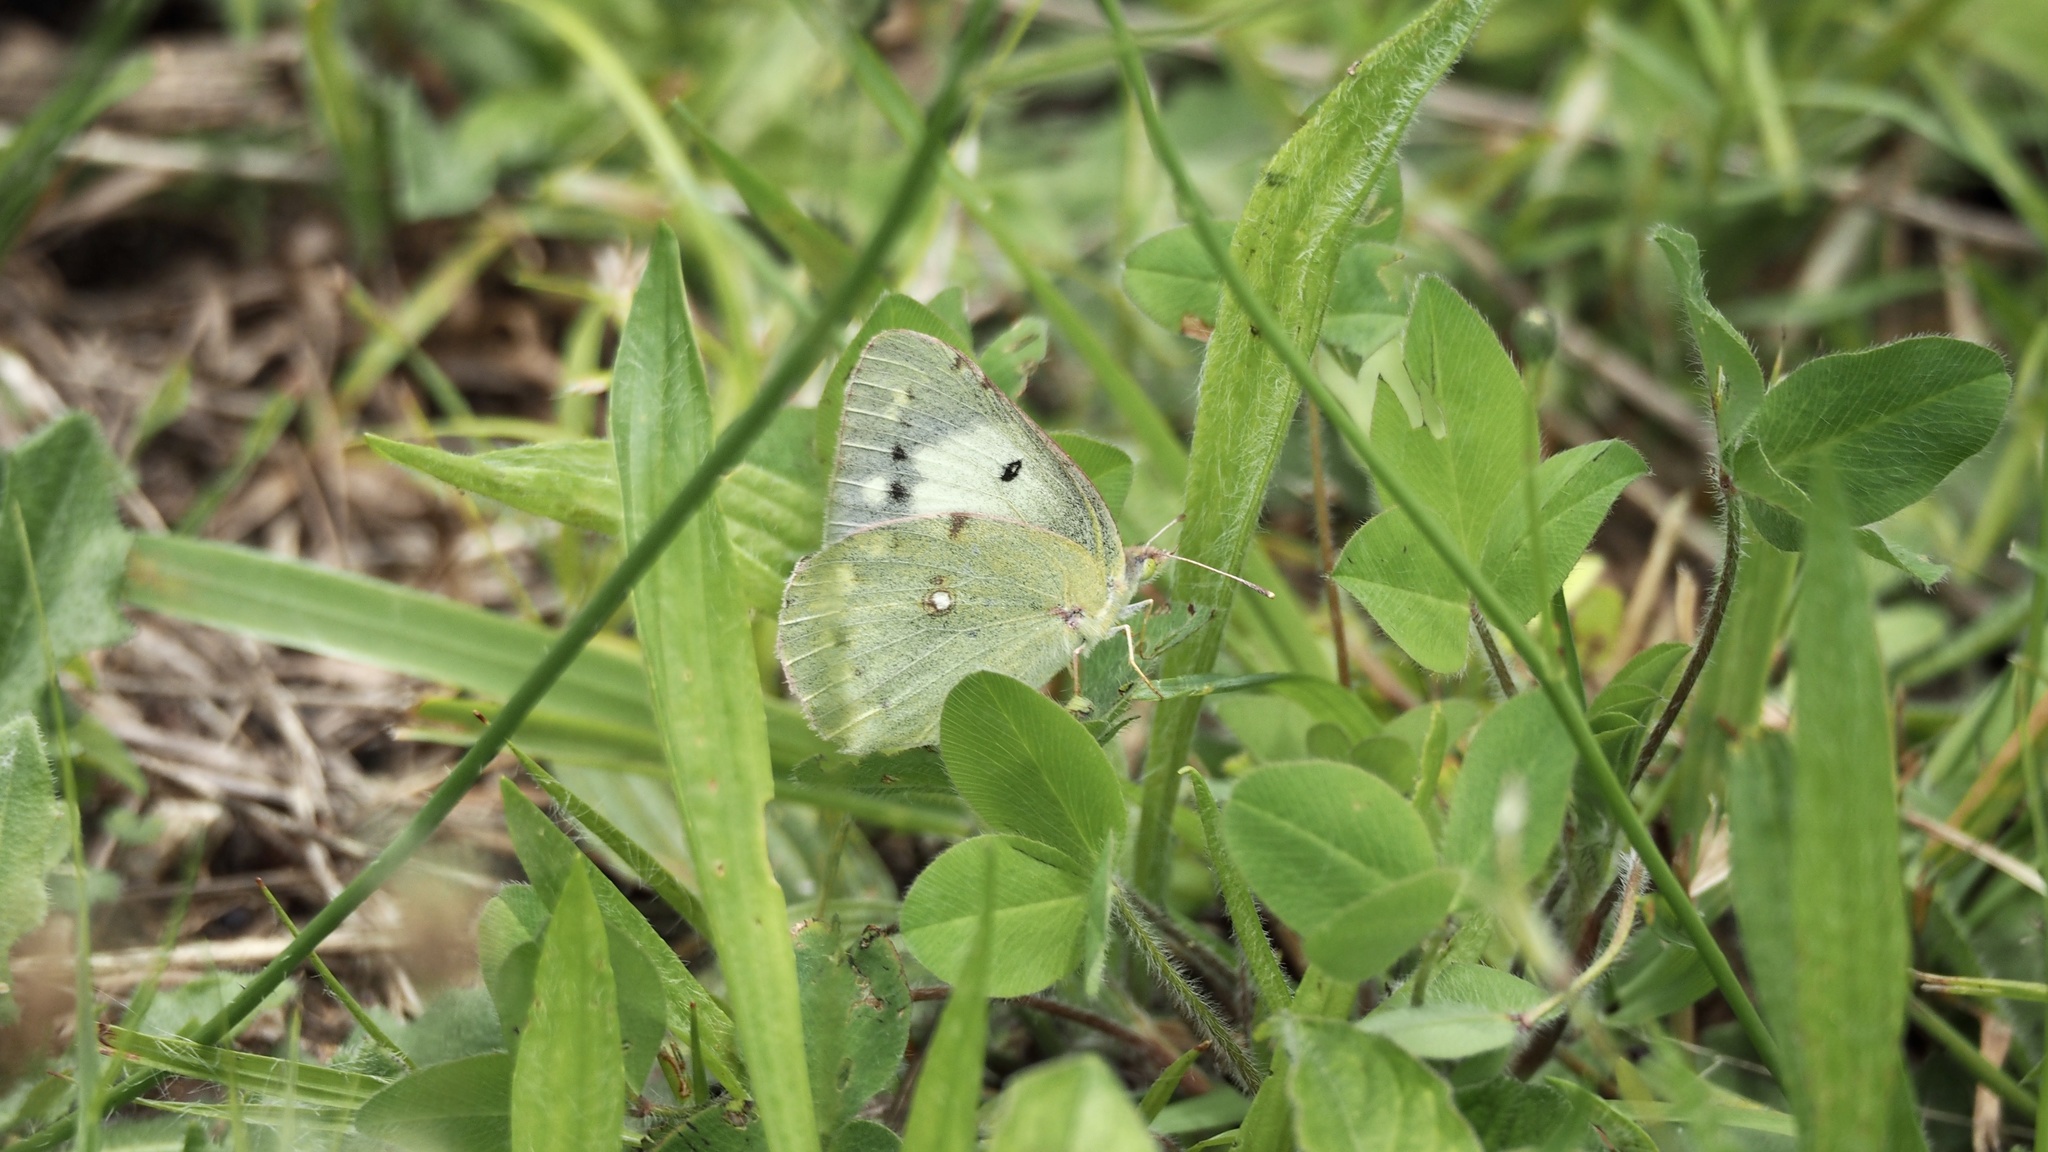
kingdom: Animalia
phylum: Arthropoda
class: Insecta
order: Lepidoptera
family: Pieridae
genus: Colias
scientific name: Colias poliographus
